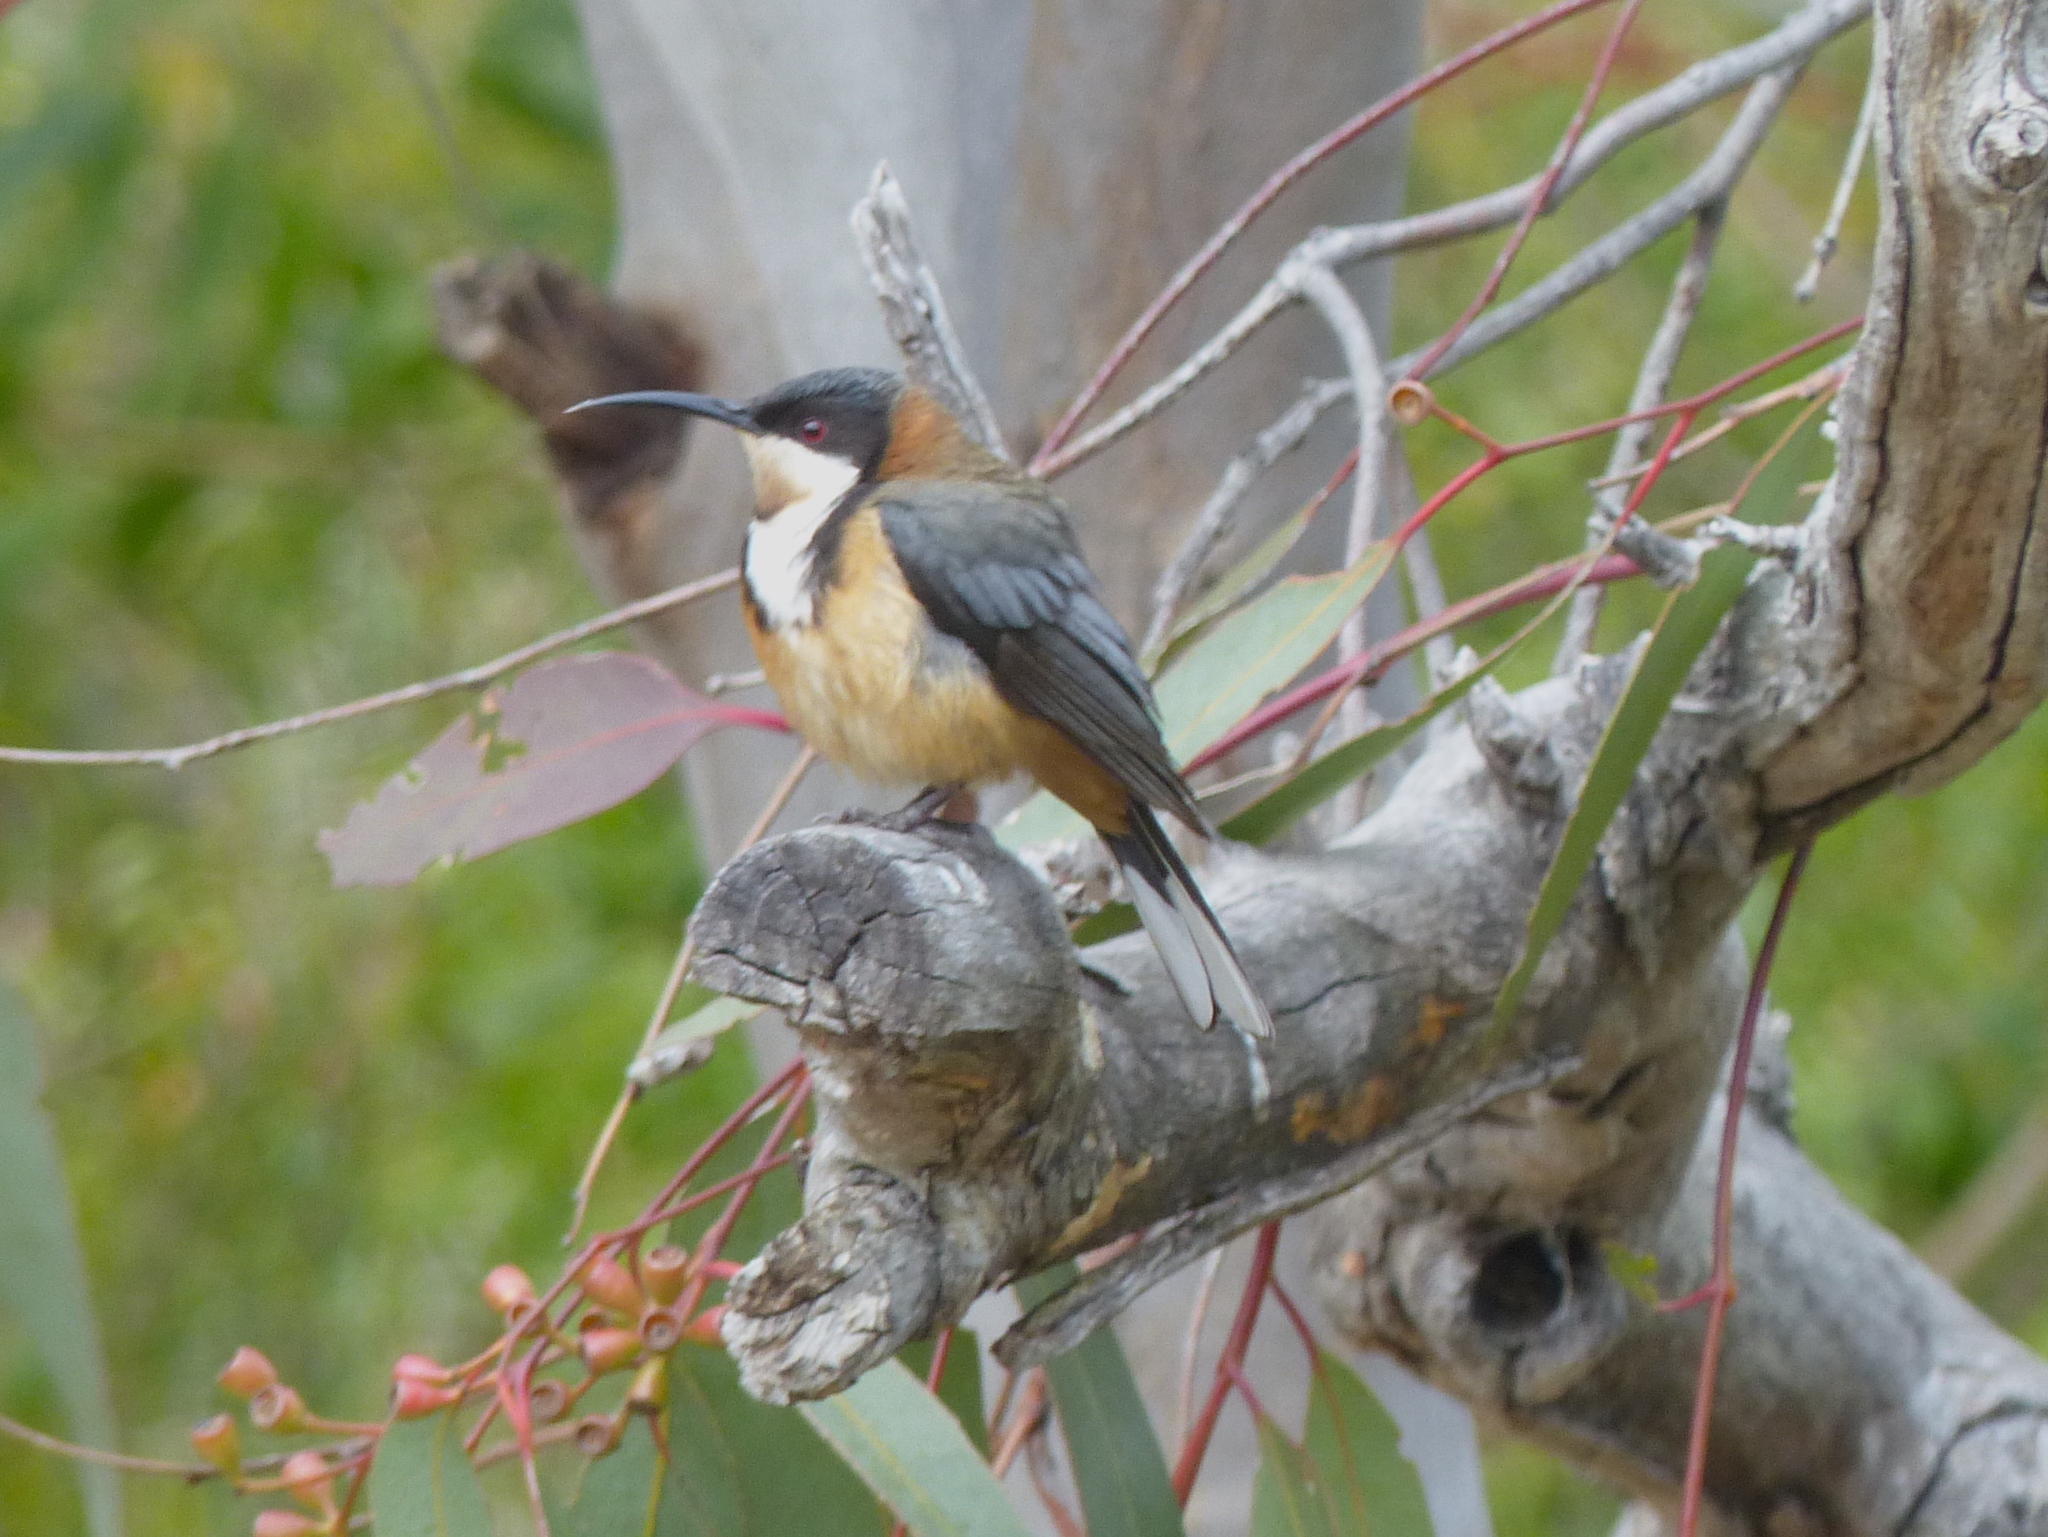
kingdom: Animalia
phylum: Chordata
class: Aves
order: Passeriformes
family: Meliphagidae
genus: Acanthorhynchus
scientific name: Acanthorhynchus tenuirostris
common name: Eastern spinebill
